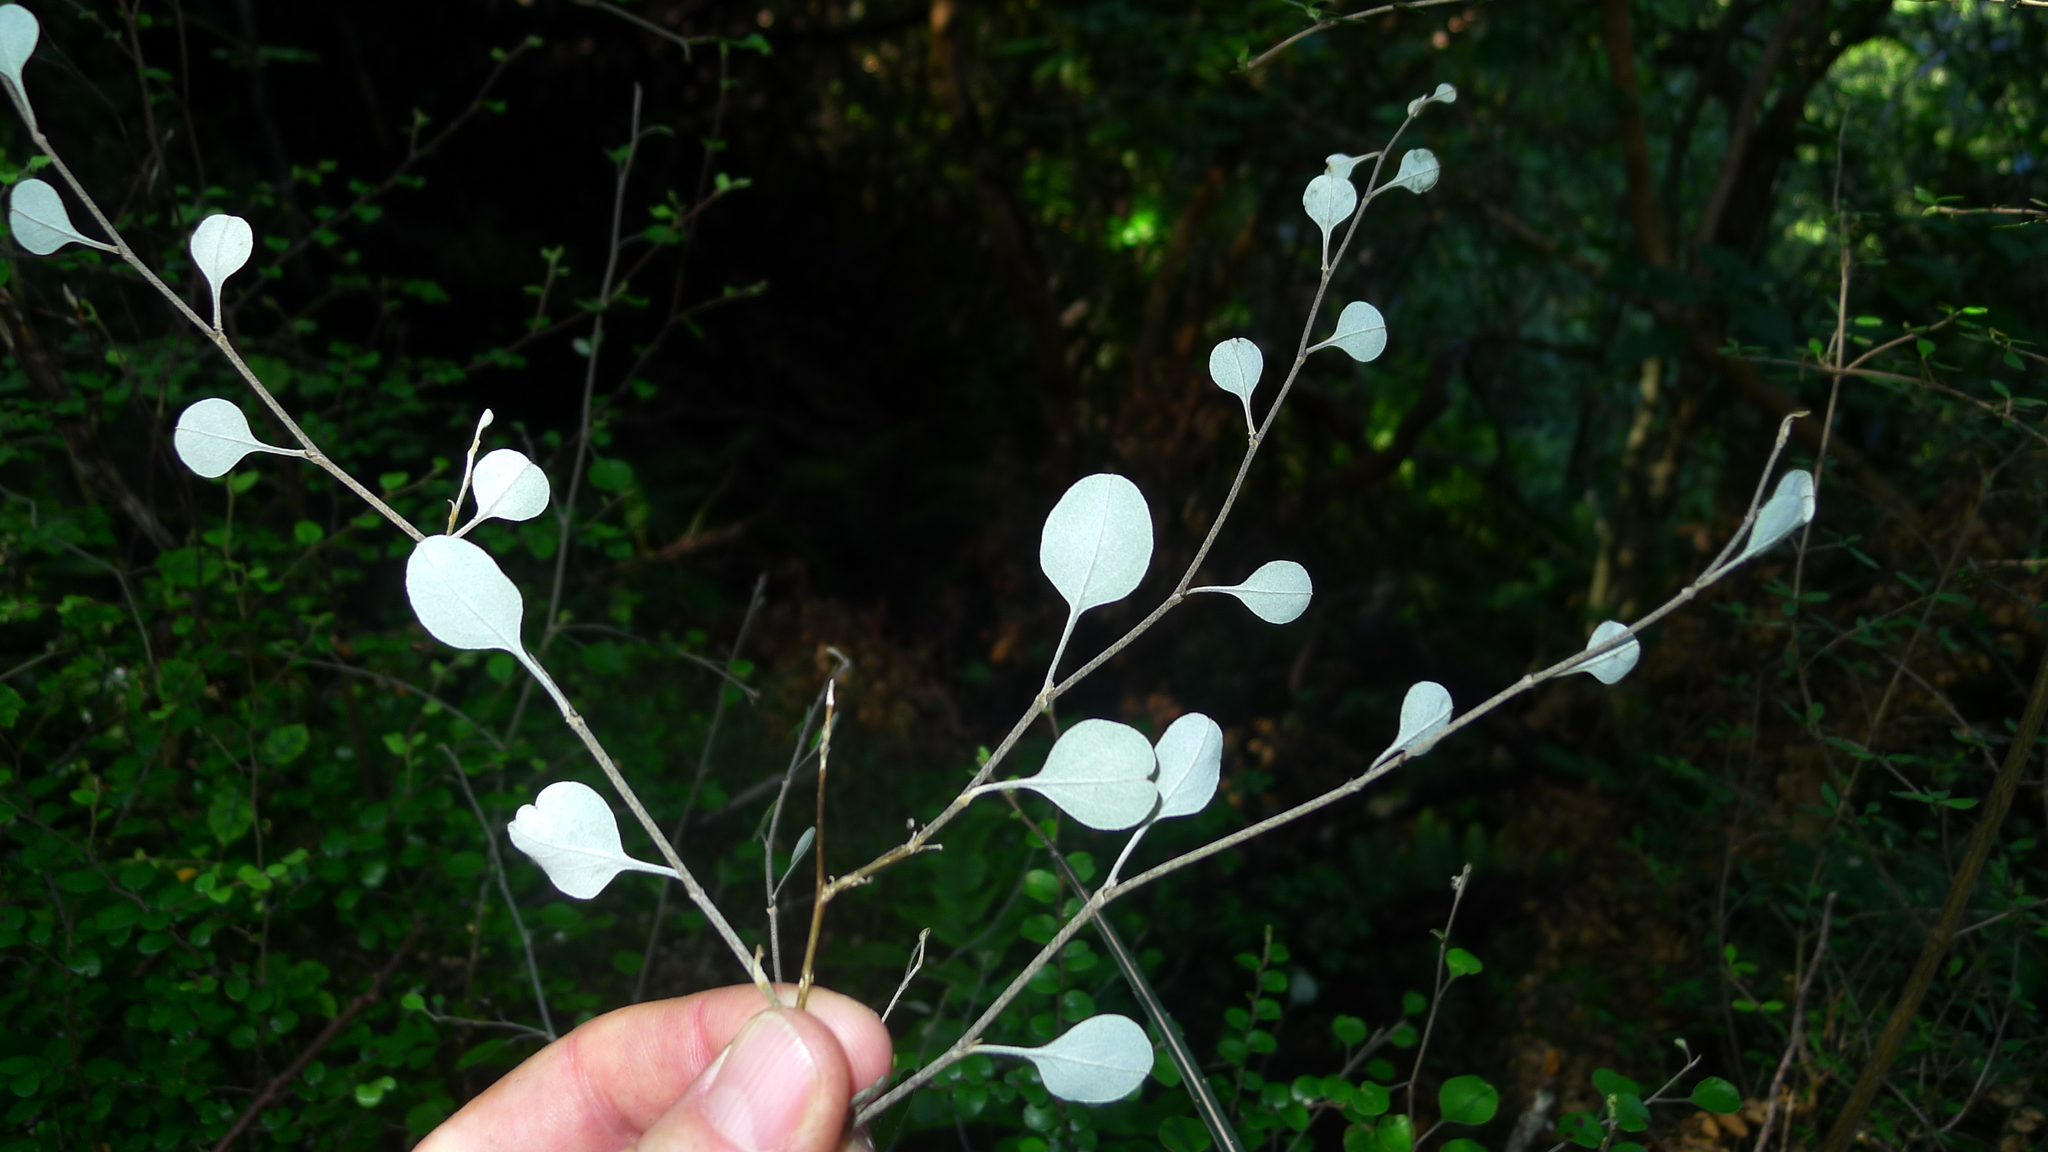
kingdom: Plantae
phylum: Tracheophyta
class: Magnoliopsida
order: Asterales
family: Asteraceae
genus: Ozothamnus
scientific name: Ozothamnus glomeratus
